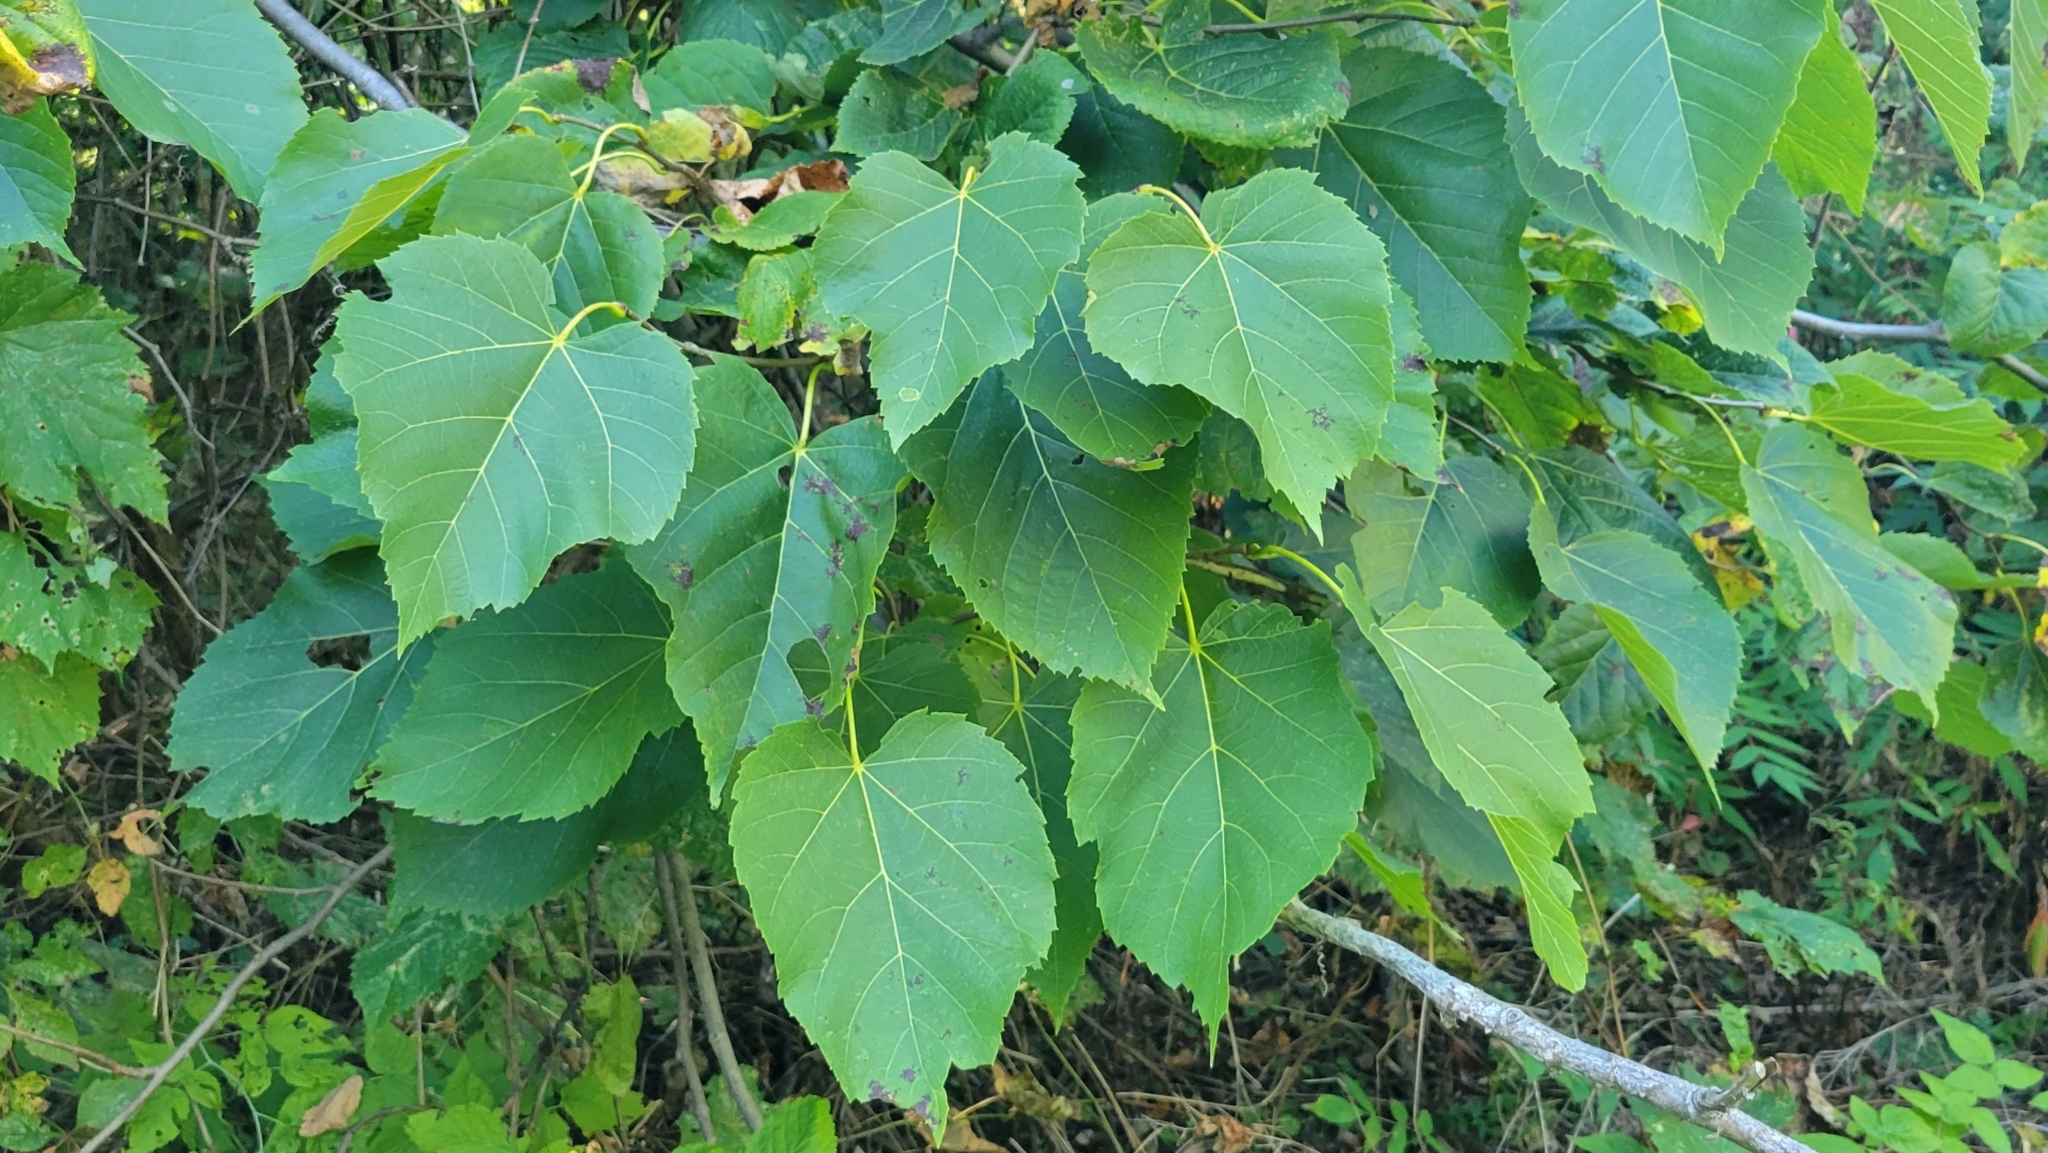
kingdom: Plantae
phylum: Tracheophyta
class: Magnoliopsida
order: Malvales
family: Malvaceae
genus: Tilia
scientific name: Tilia americana
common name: Basswood
